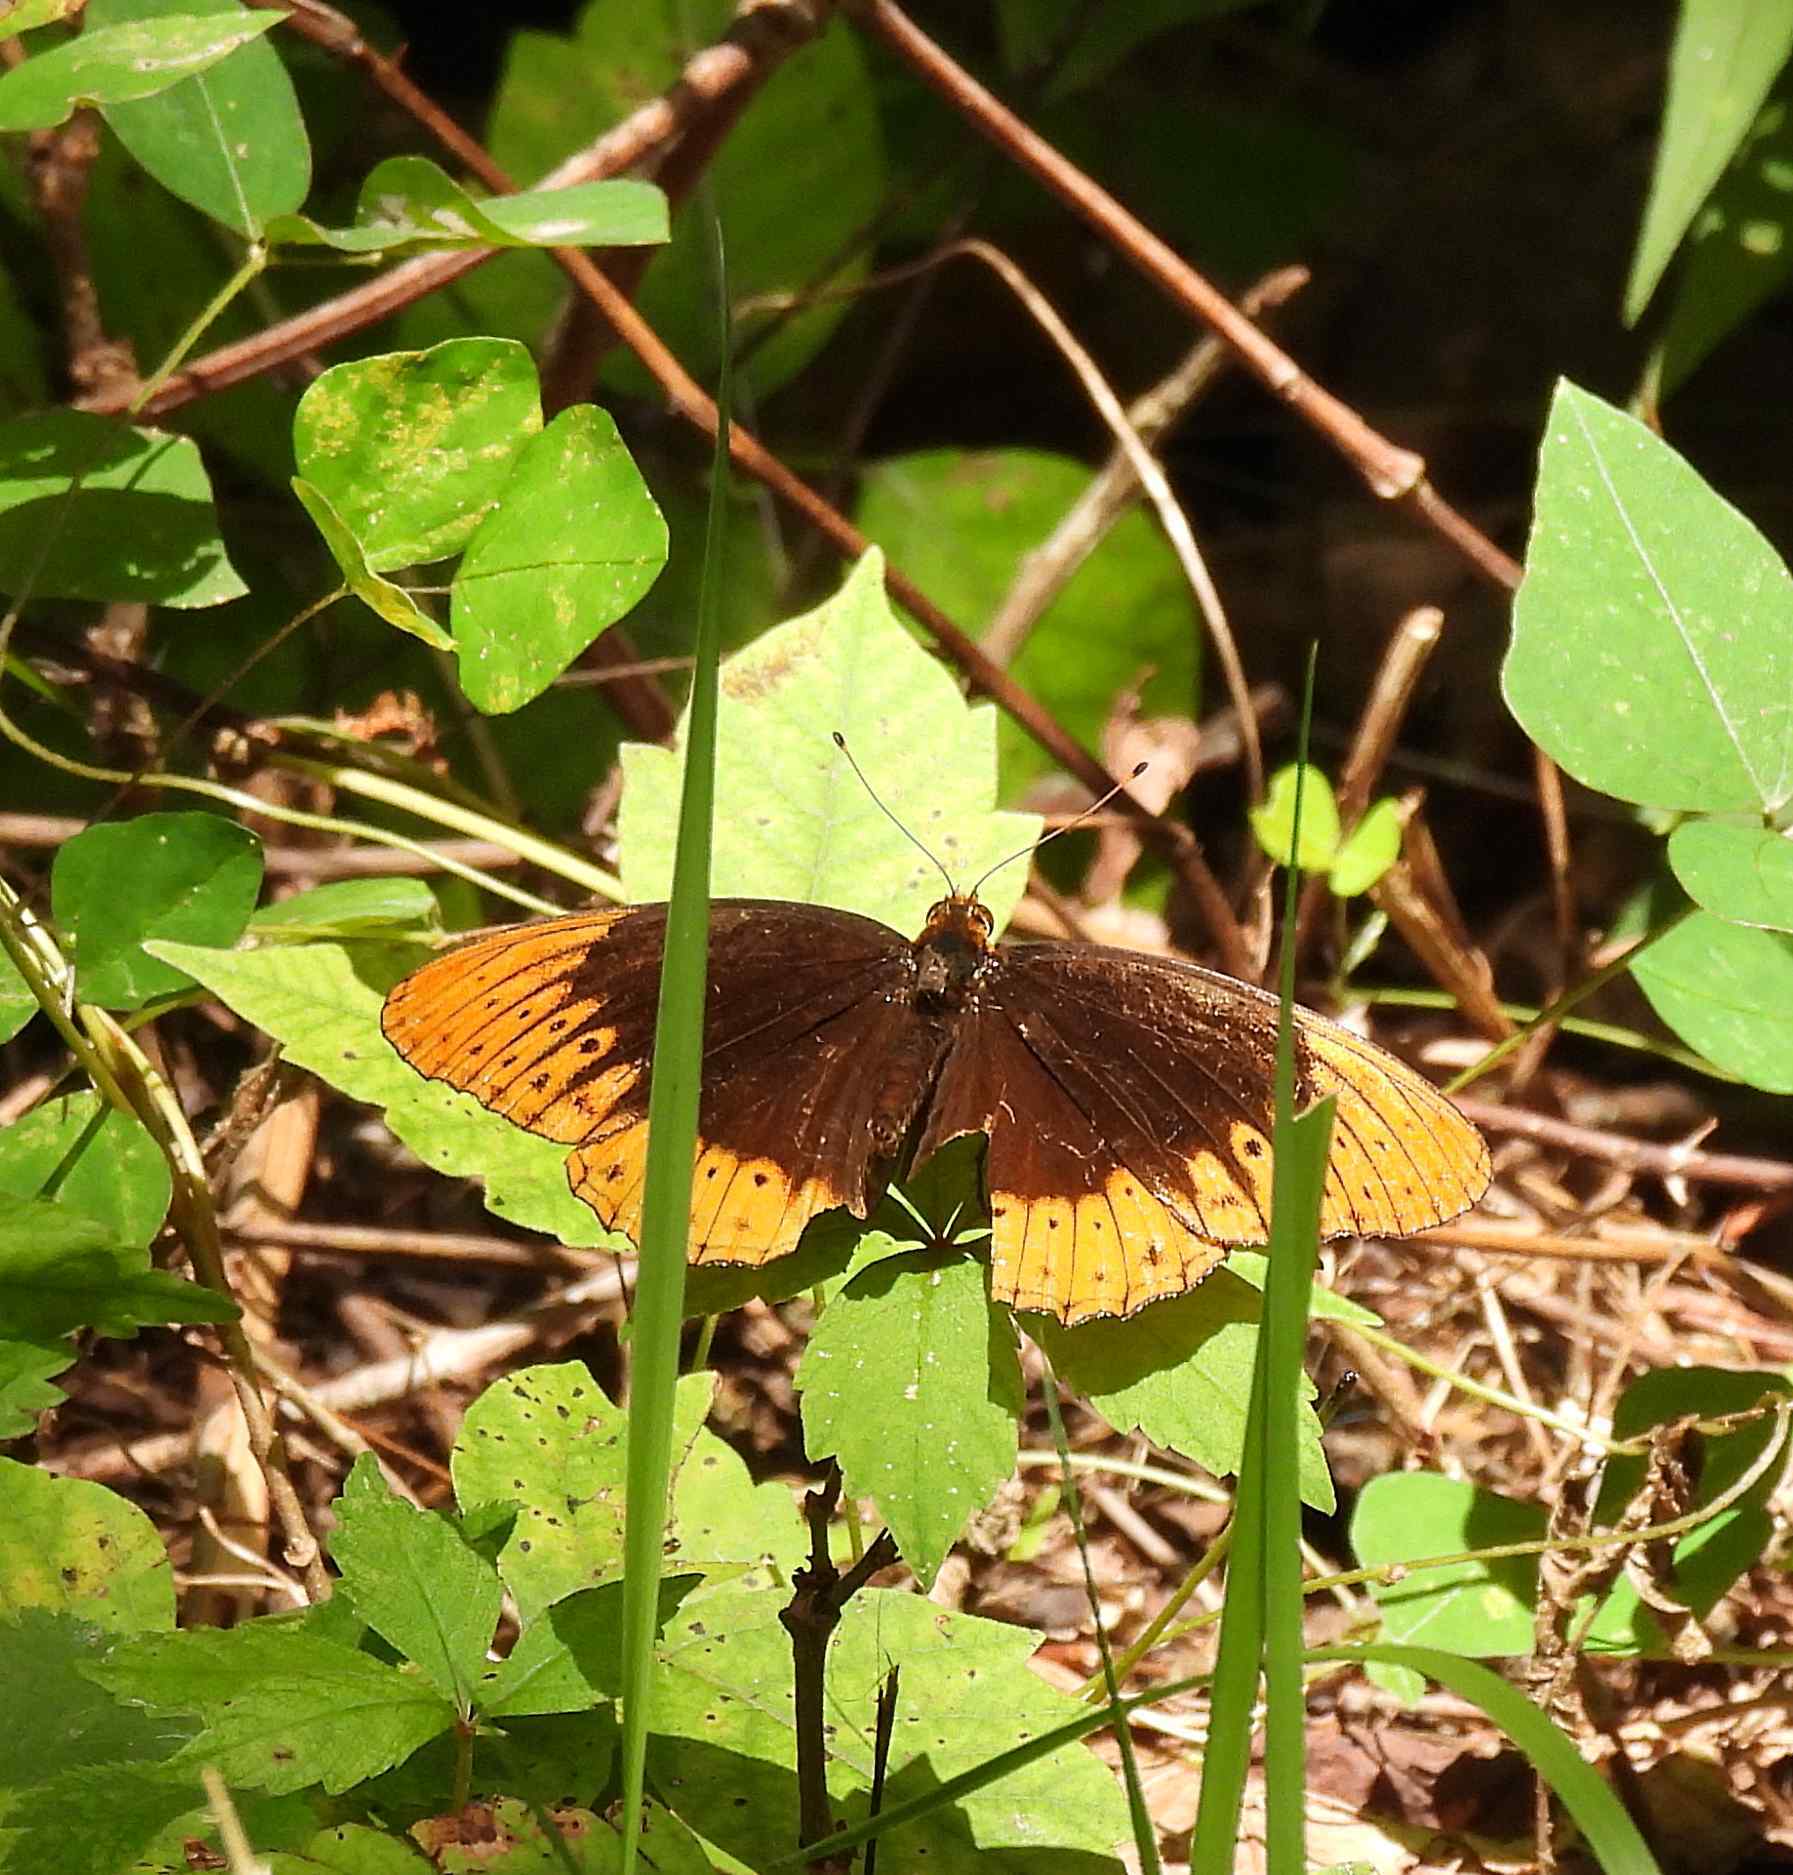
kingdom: Animalia
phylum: Arthropoda
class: Insecta
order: Lepidoptera
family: Nymphalidae
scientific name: Nymphalidae
